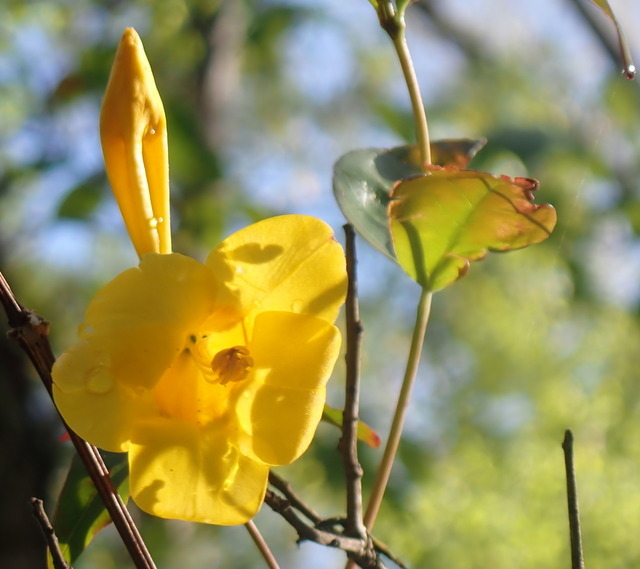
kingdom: Plantae
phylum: Tracheophyta
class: Magnoliopsida
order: Gentianales
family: Gelsemiaceae
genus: Gelsemium
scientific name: Gelsemium rankinii
